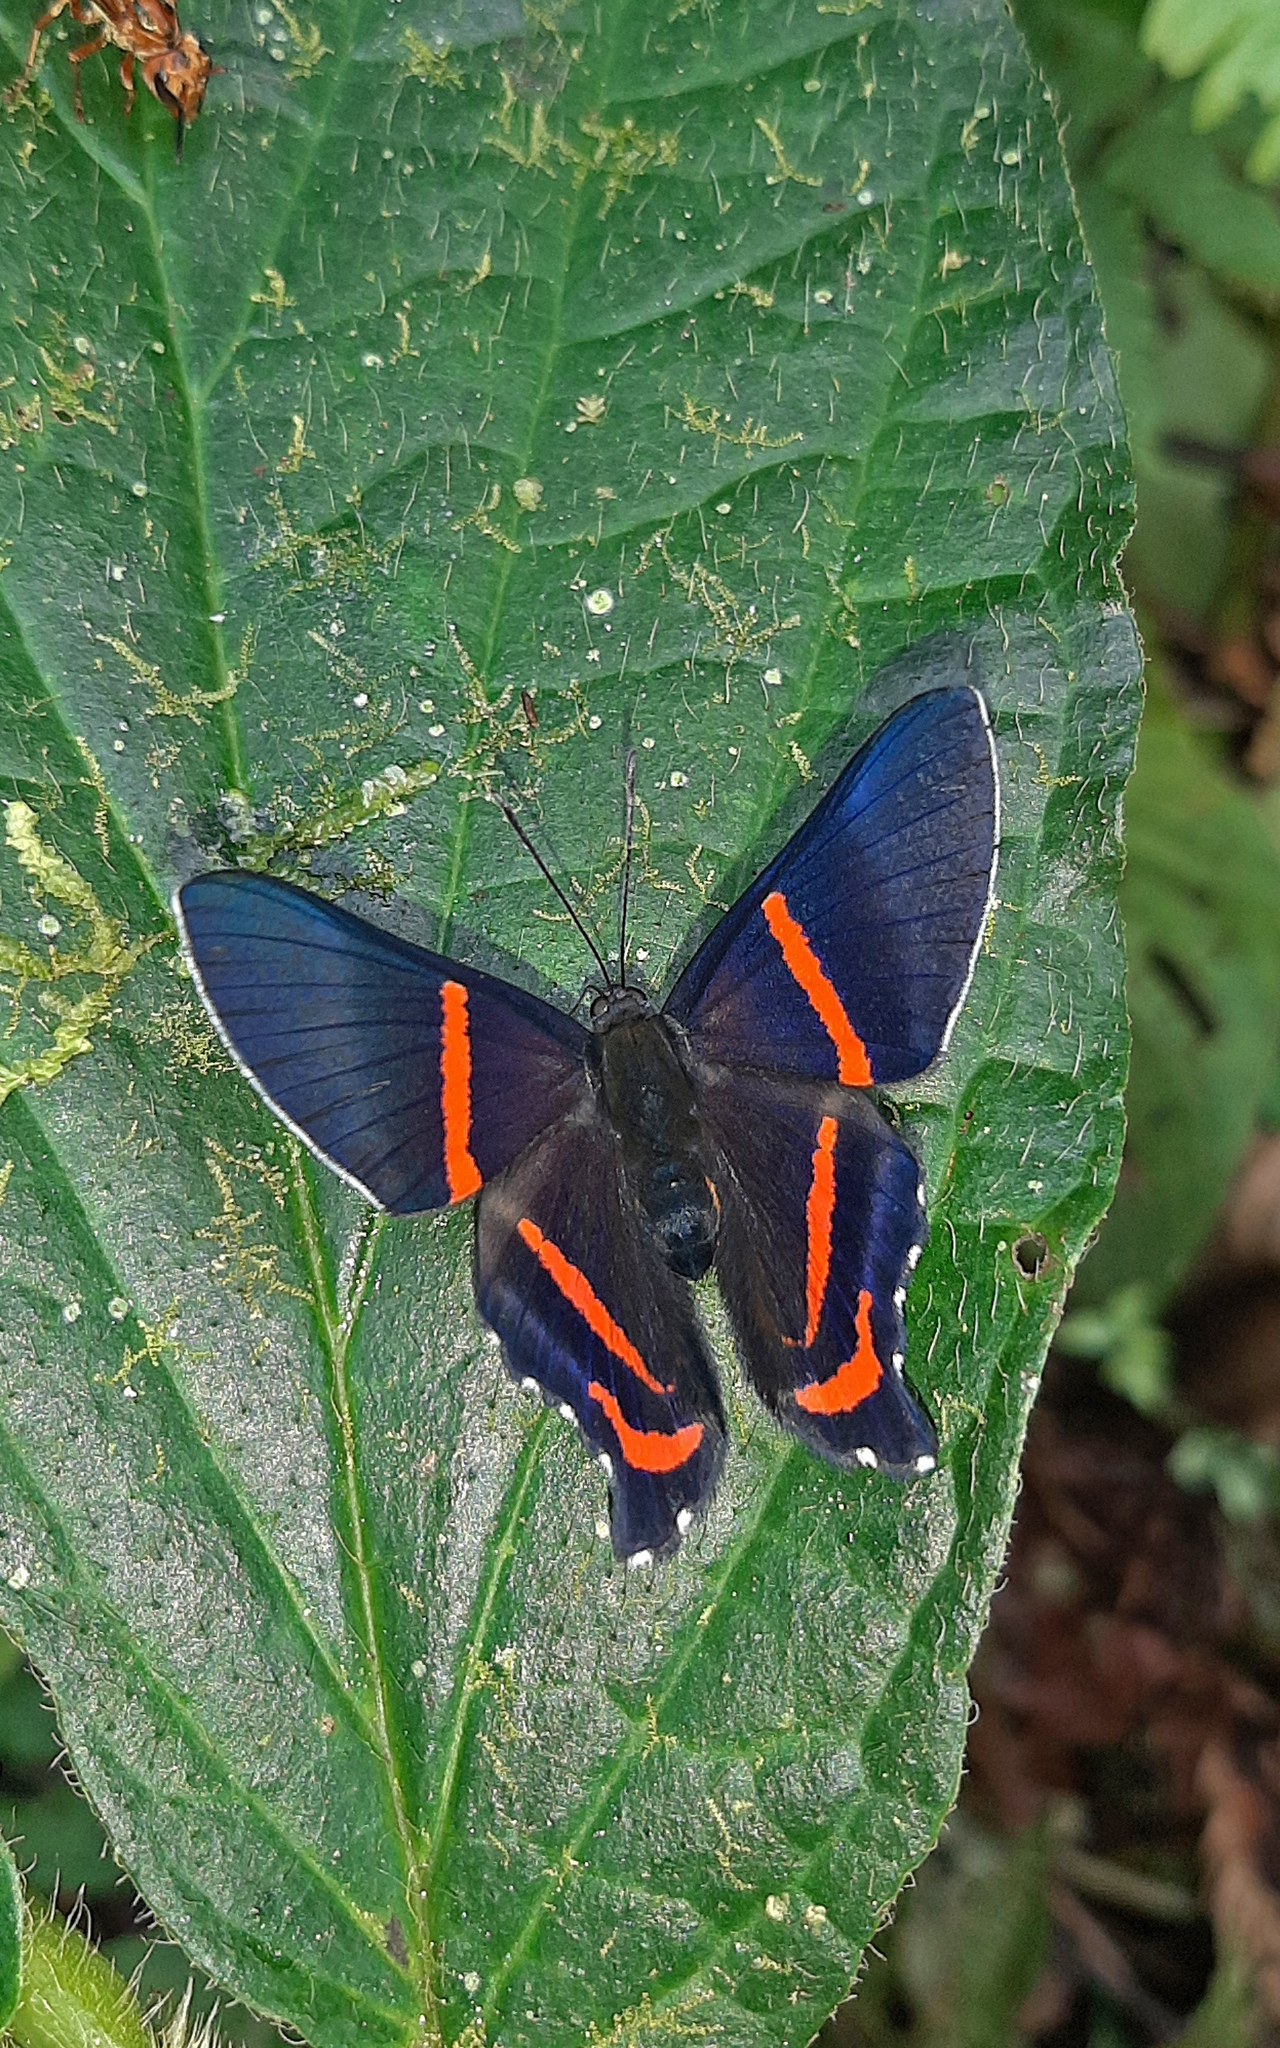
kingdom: Animalia
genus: Ancyluris
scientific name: Ancyluris etias
